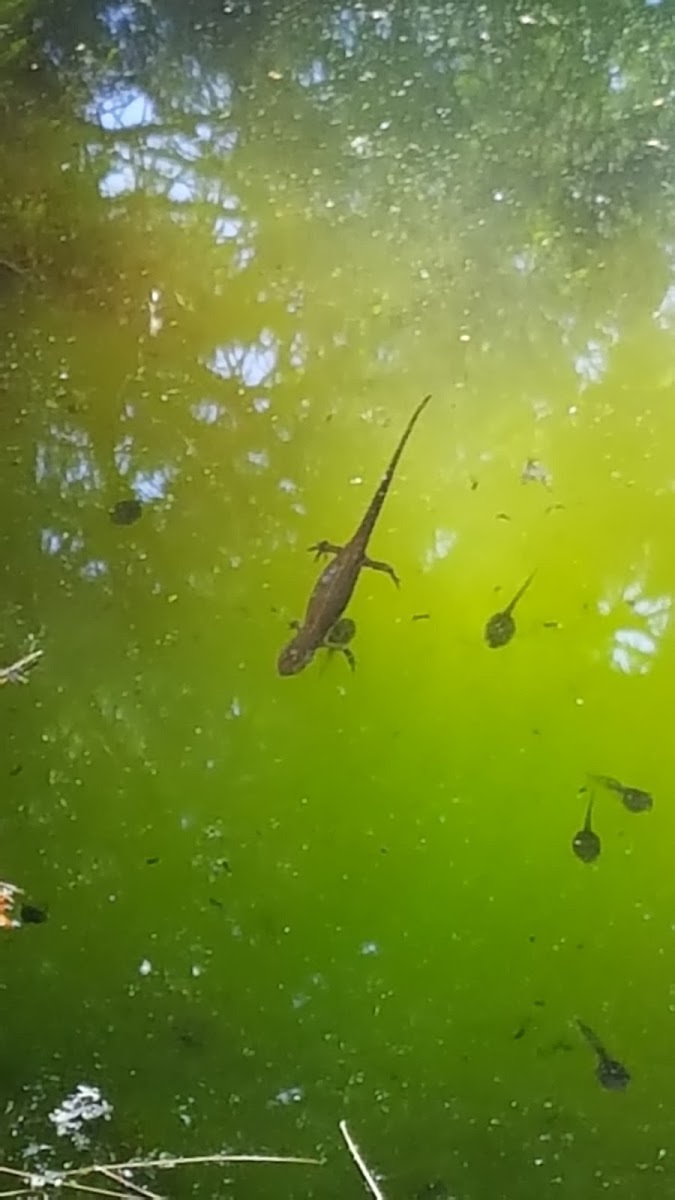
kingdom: Animalia
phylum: Chordata
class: Amphibia
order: Caudata
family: Salamandridae
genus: Notophthalmus
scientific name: Notophthalmus viridescens
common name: Eastern newt
